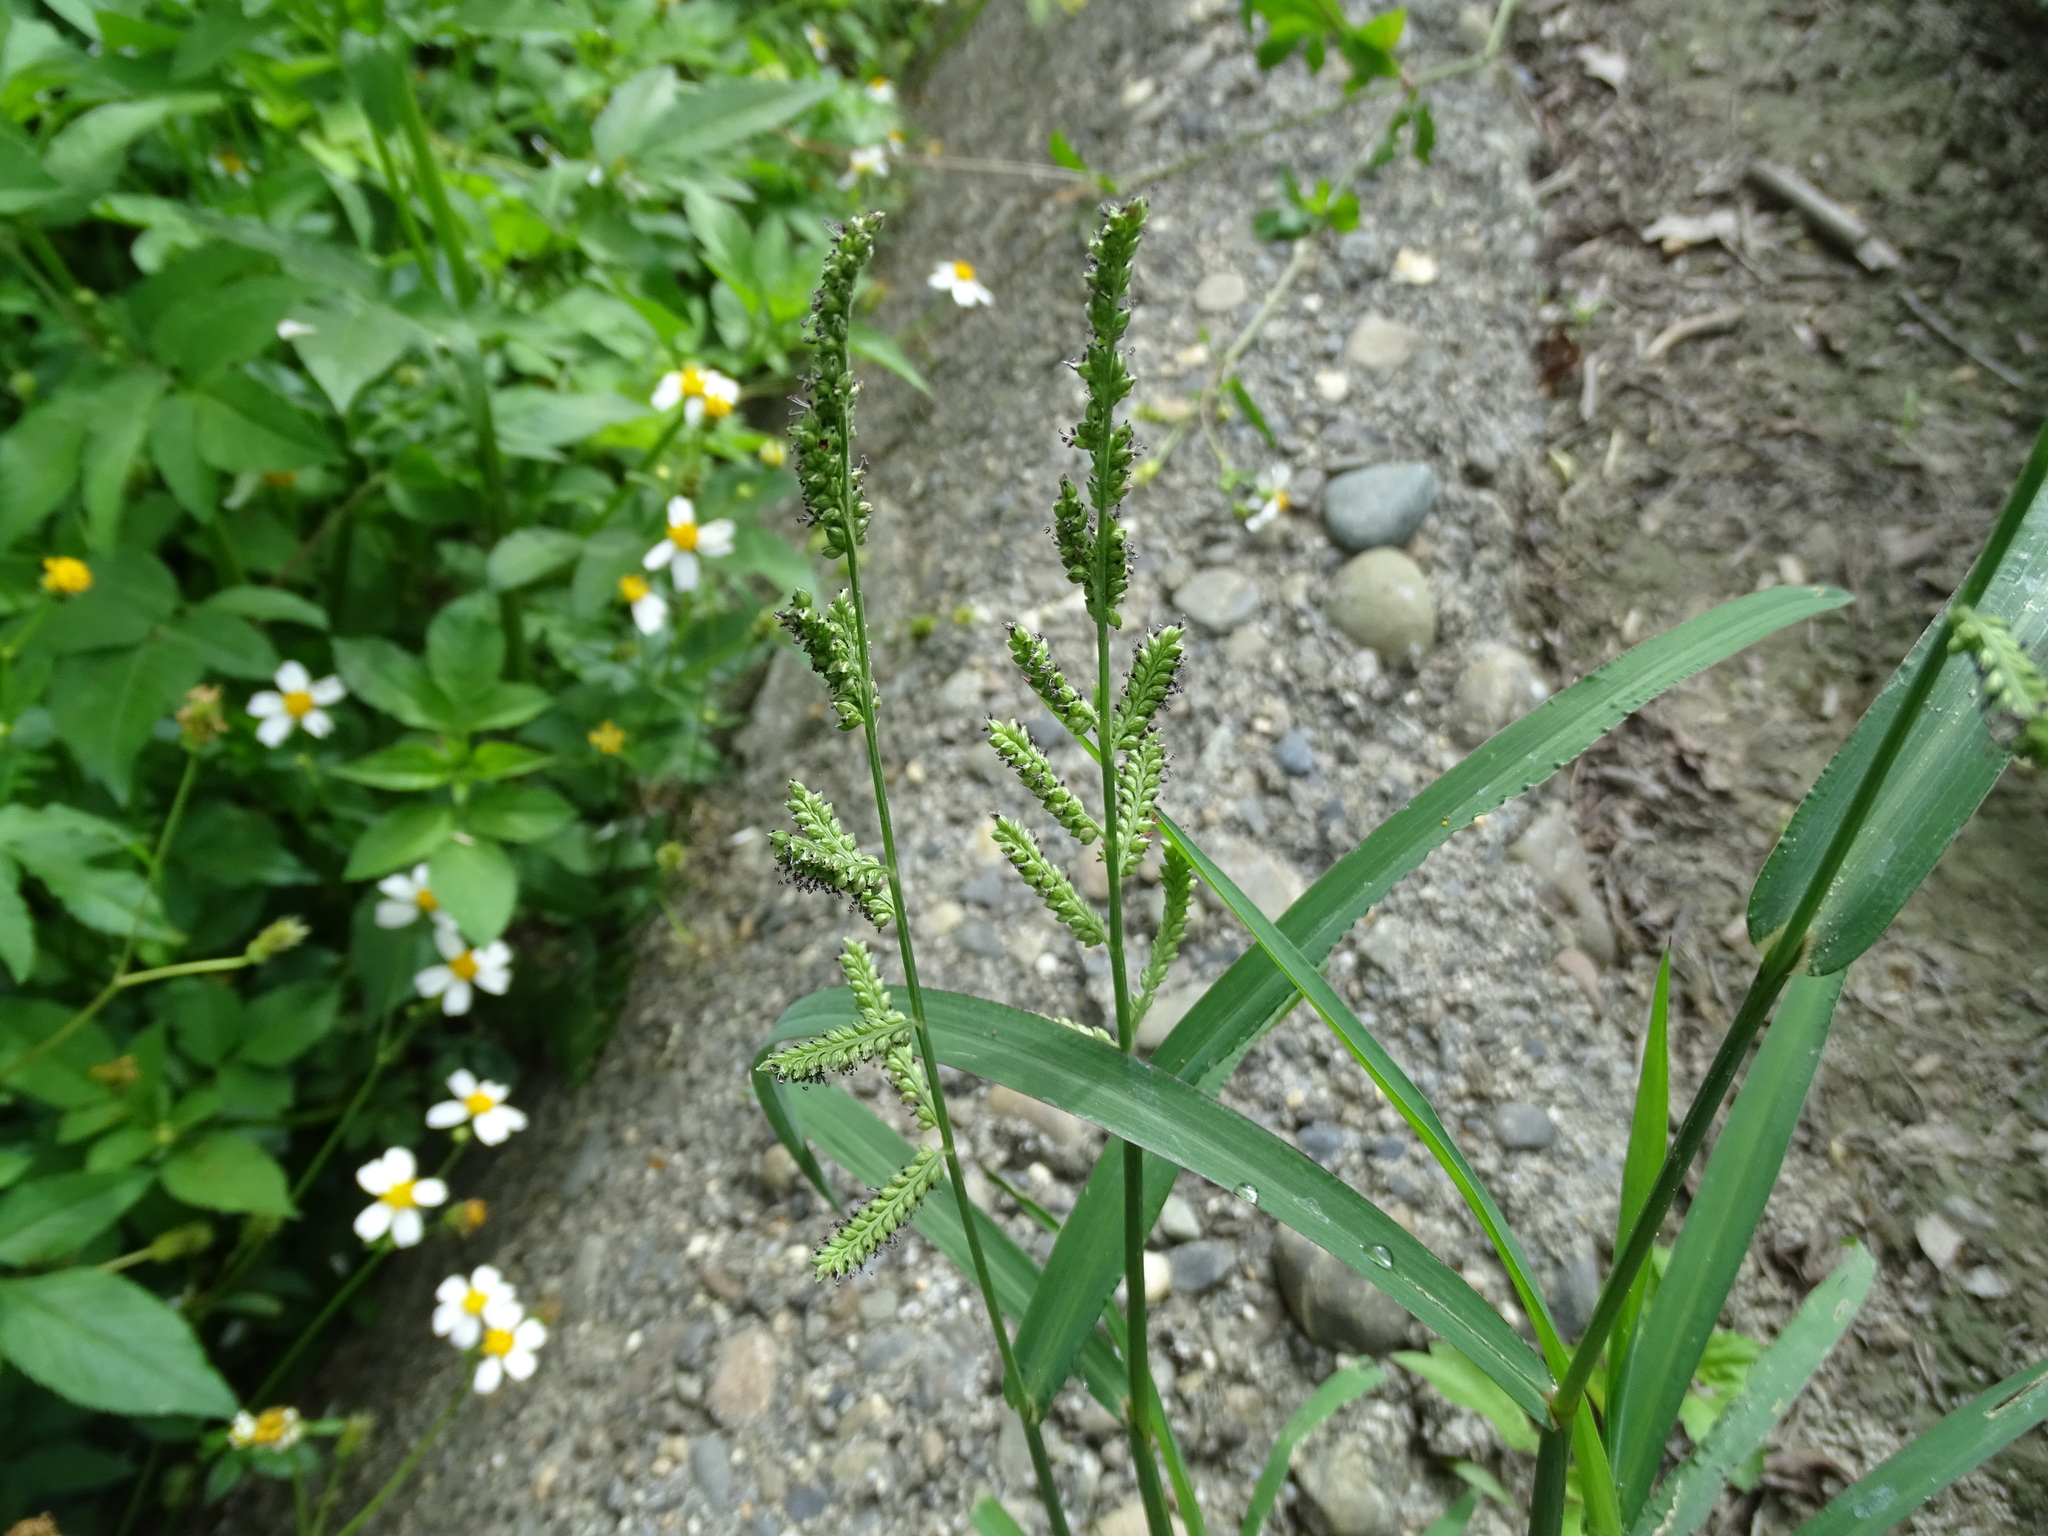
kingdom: Plantae
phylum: Tracheophyta
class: Liliopsida
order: Poales
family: Poaceae
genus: Echinochloa
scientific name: Echinochloa colonum
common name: Jungle rice
